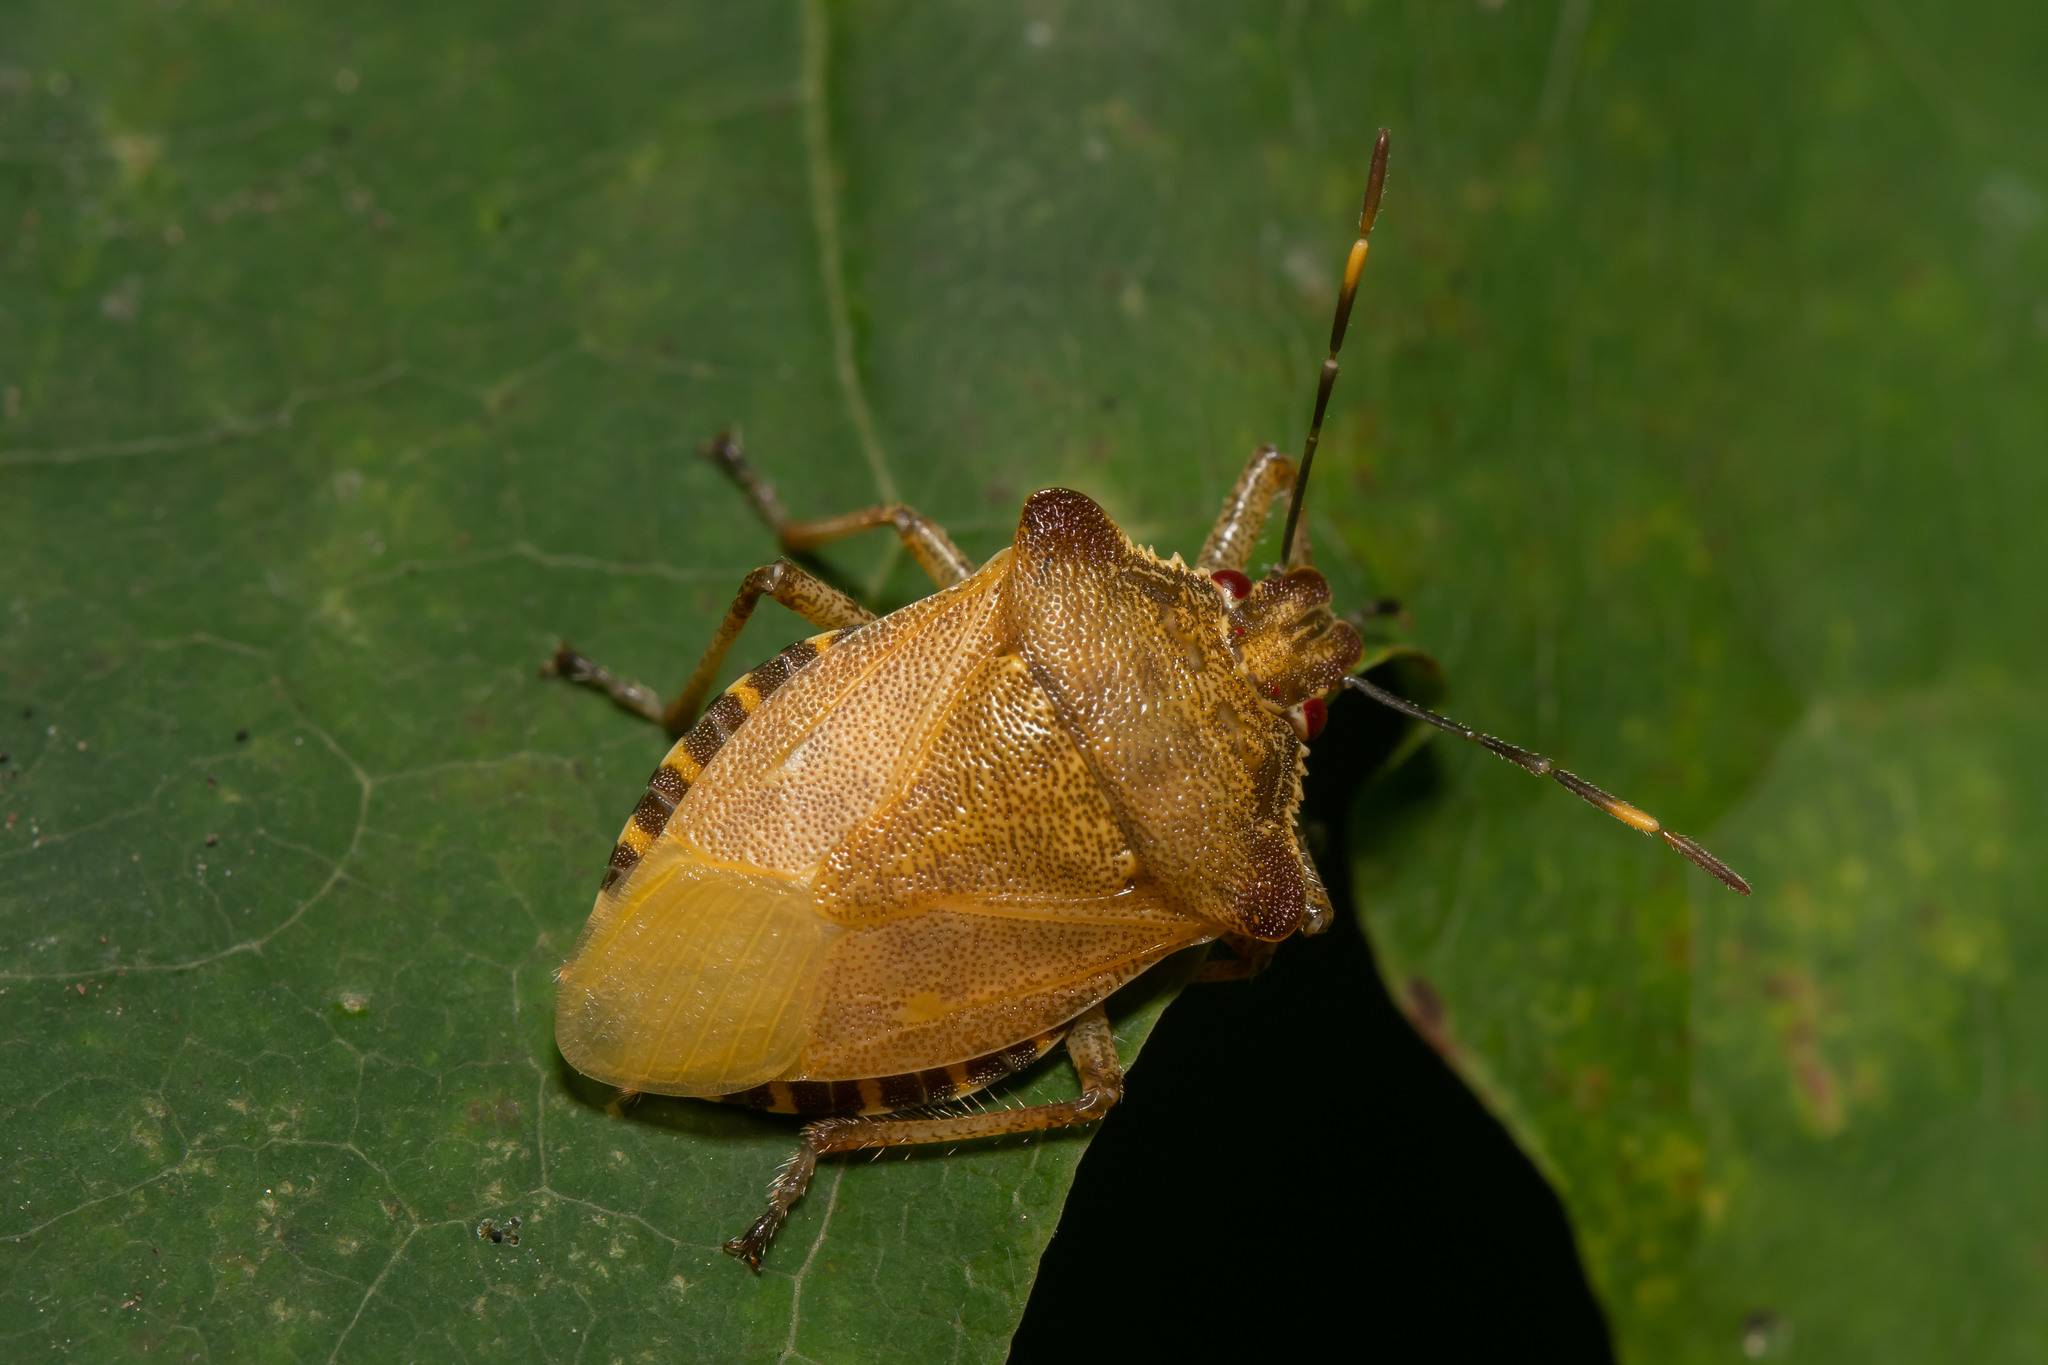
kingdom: Animalia
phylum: Arthropoda
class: Insecta
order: Hemiptera
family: Pentatomidae
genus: Troilus
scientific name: Troilus luridus
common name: Bronze shieldbug
